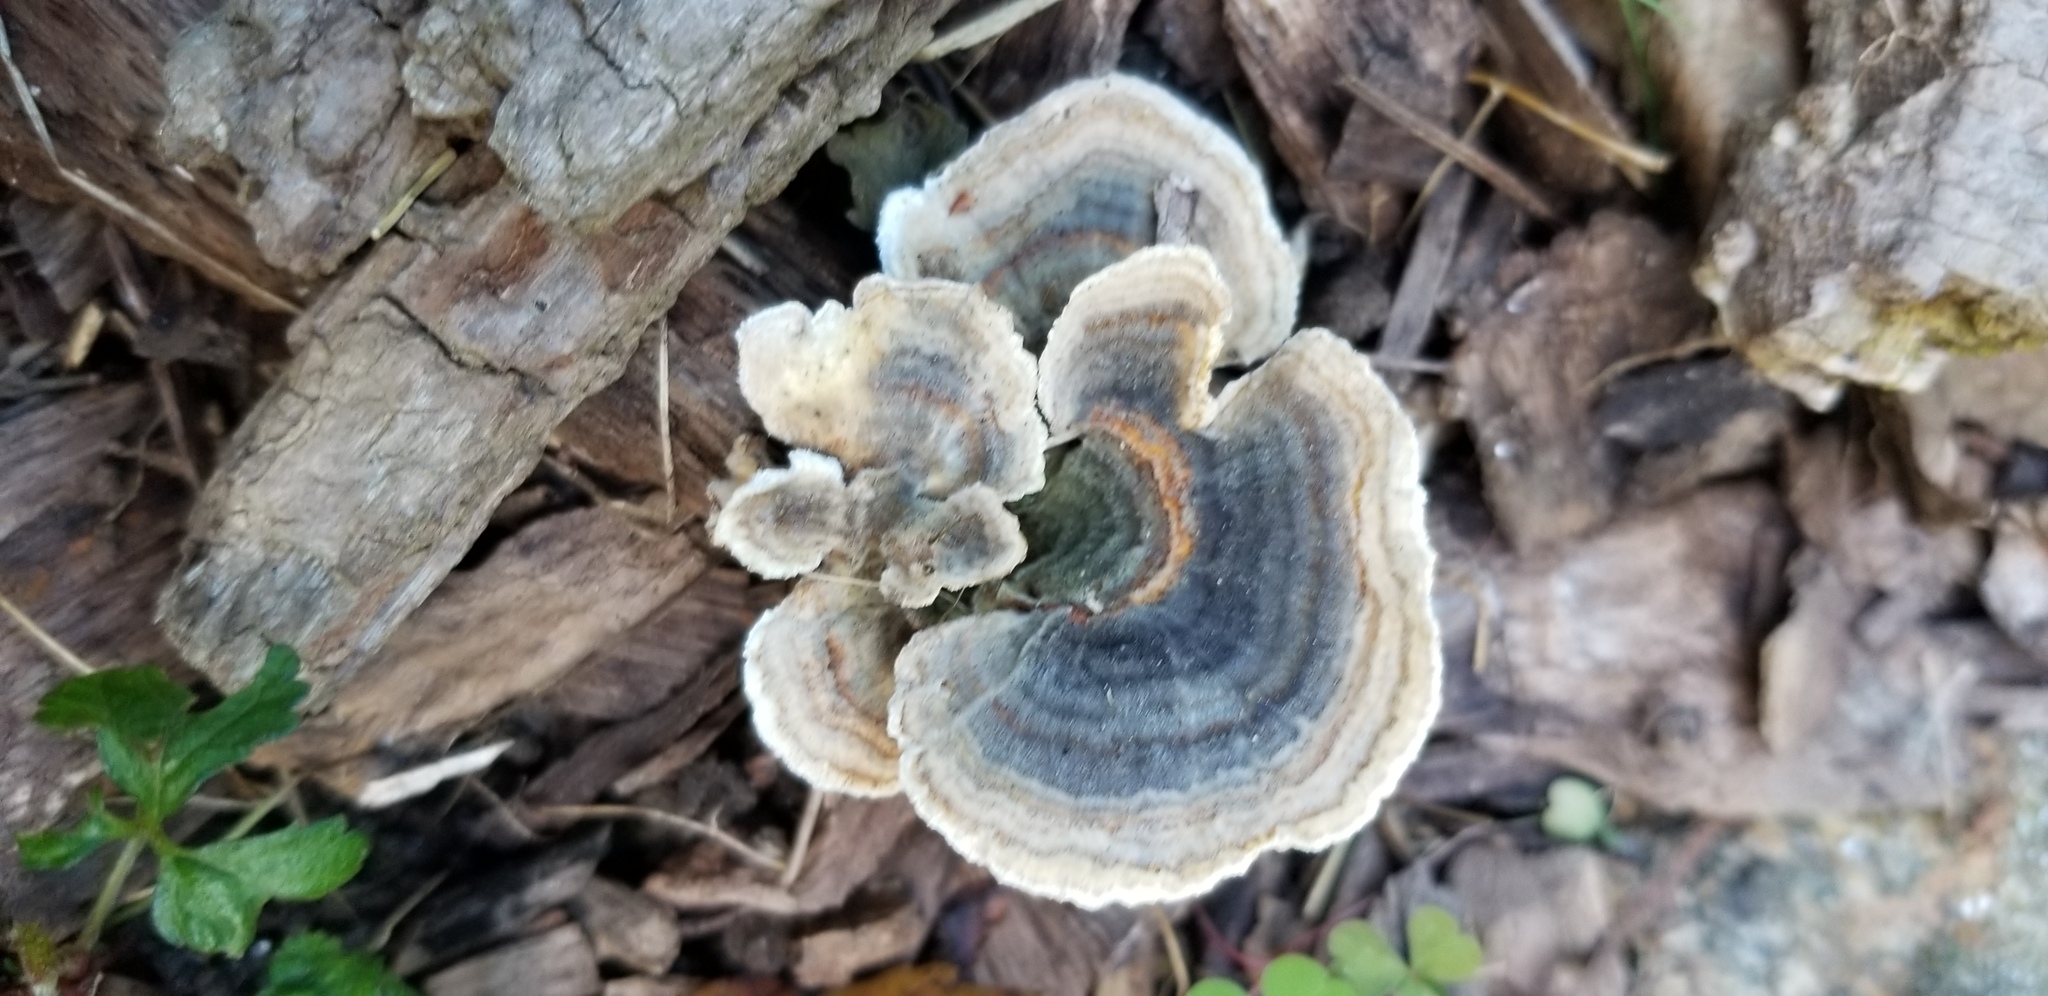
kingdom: Fungi
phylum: Basidiomycota
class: Agaricomycetes
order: Polyporales
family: Polyporaceae
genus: Trametes
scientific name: Trametes versicolor
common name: Turkeytail
